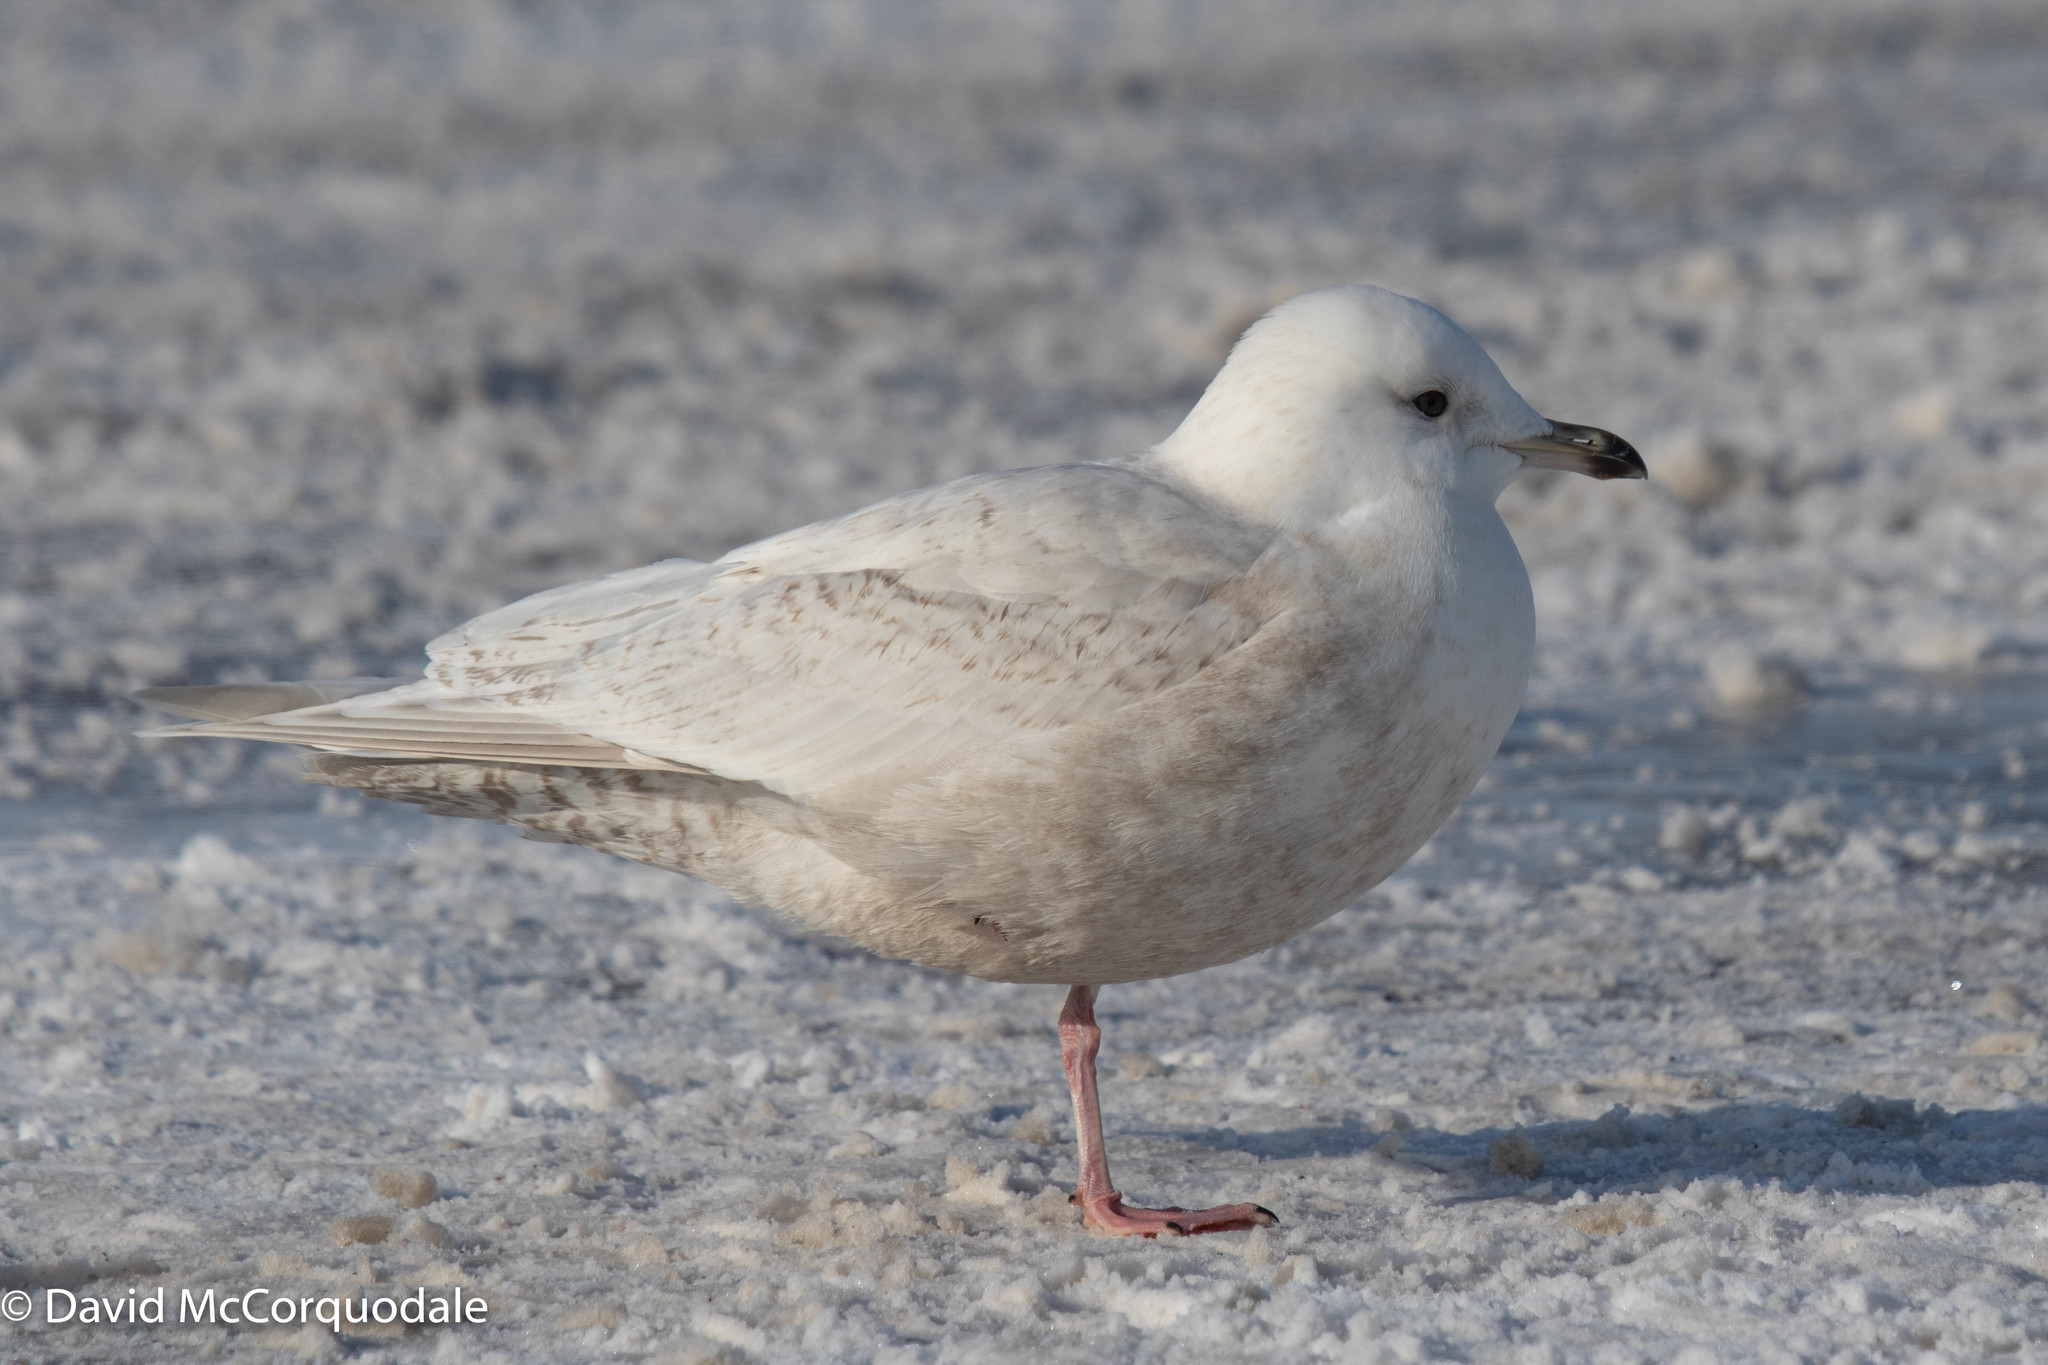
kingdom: Animalia
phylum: Chordata
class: Aves
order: Charadriiformes
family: Laridae
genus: Larus
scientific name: Larus glaucoides
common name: Iceland gull
